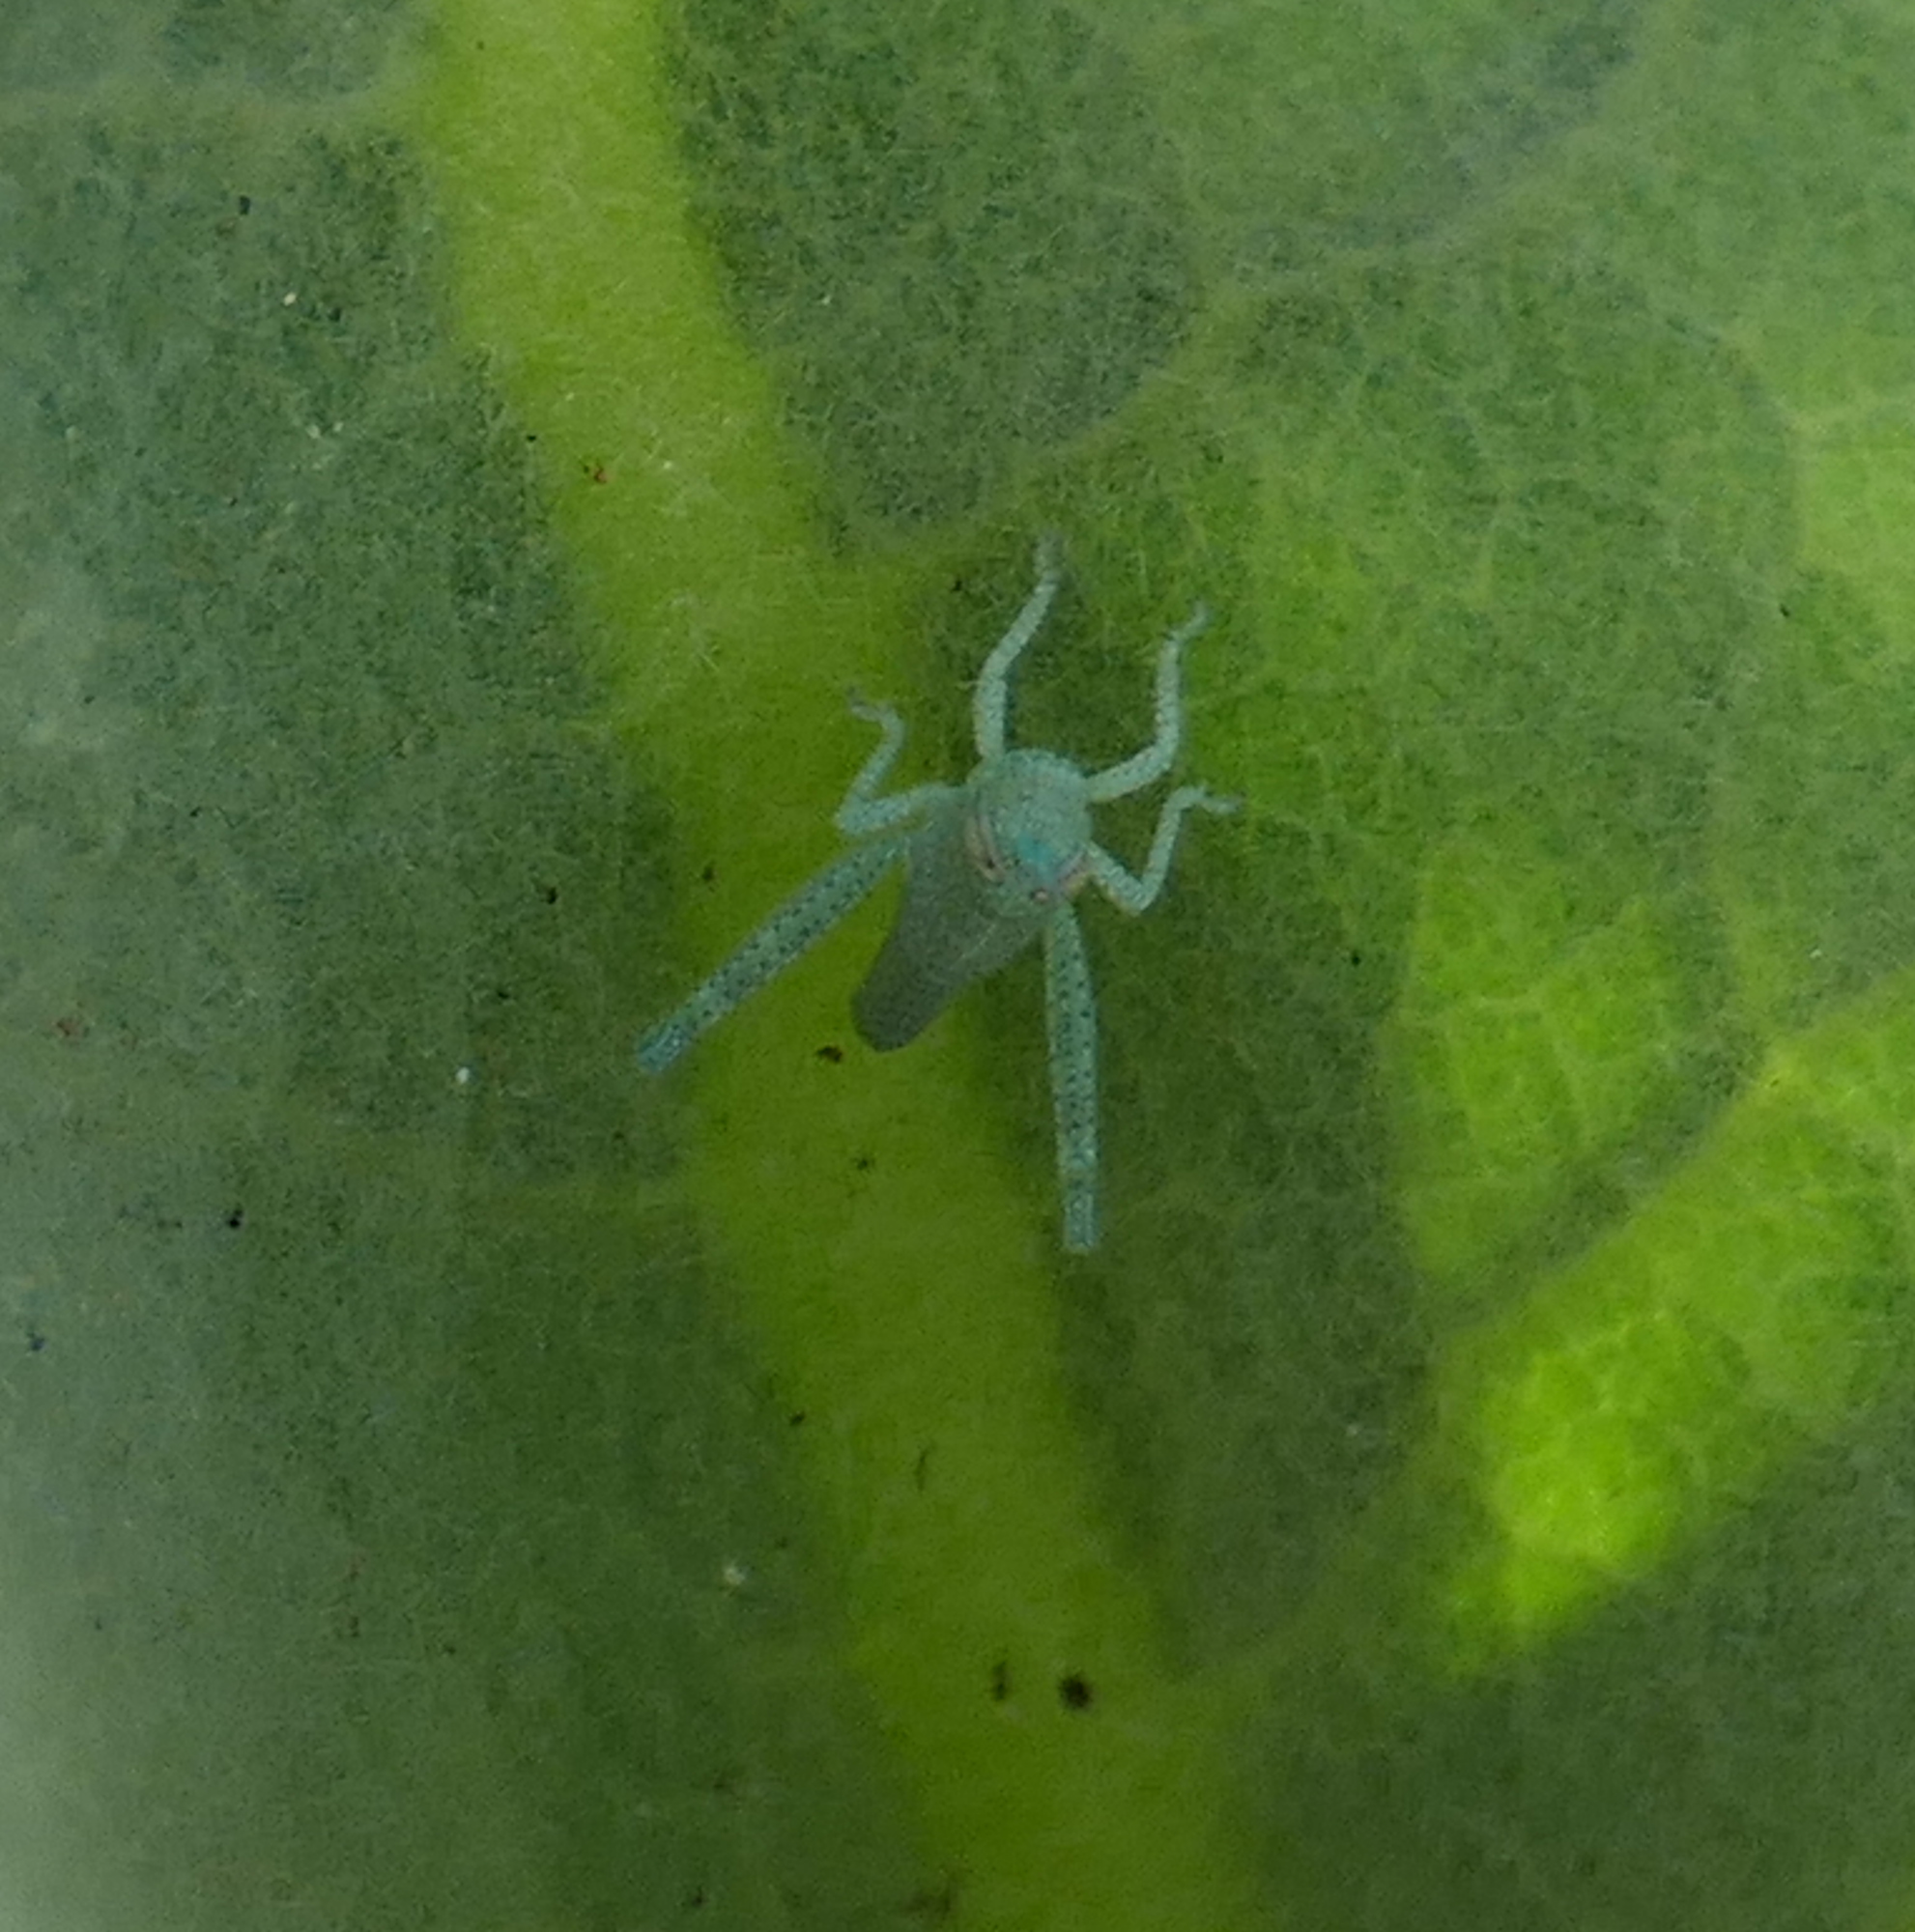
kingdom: Animalia
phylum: Arthropoda
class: Insecta
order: Orthoptera
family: Acrididae
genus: Schistocerca
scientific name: Schistocerca nitens
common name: Vagrant grasshopper
